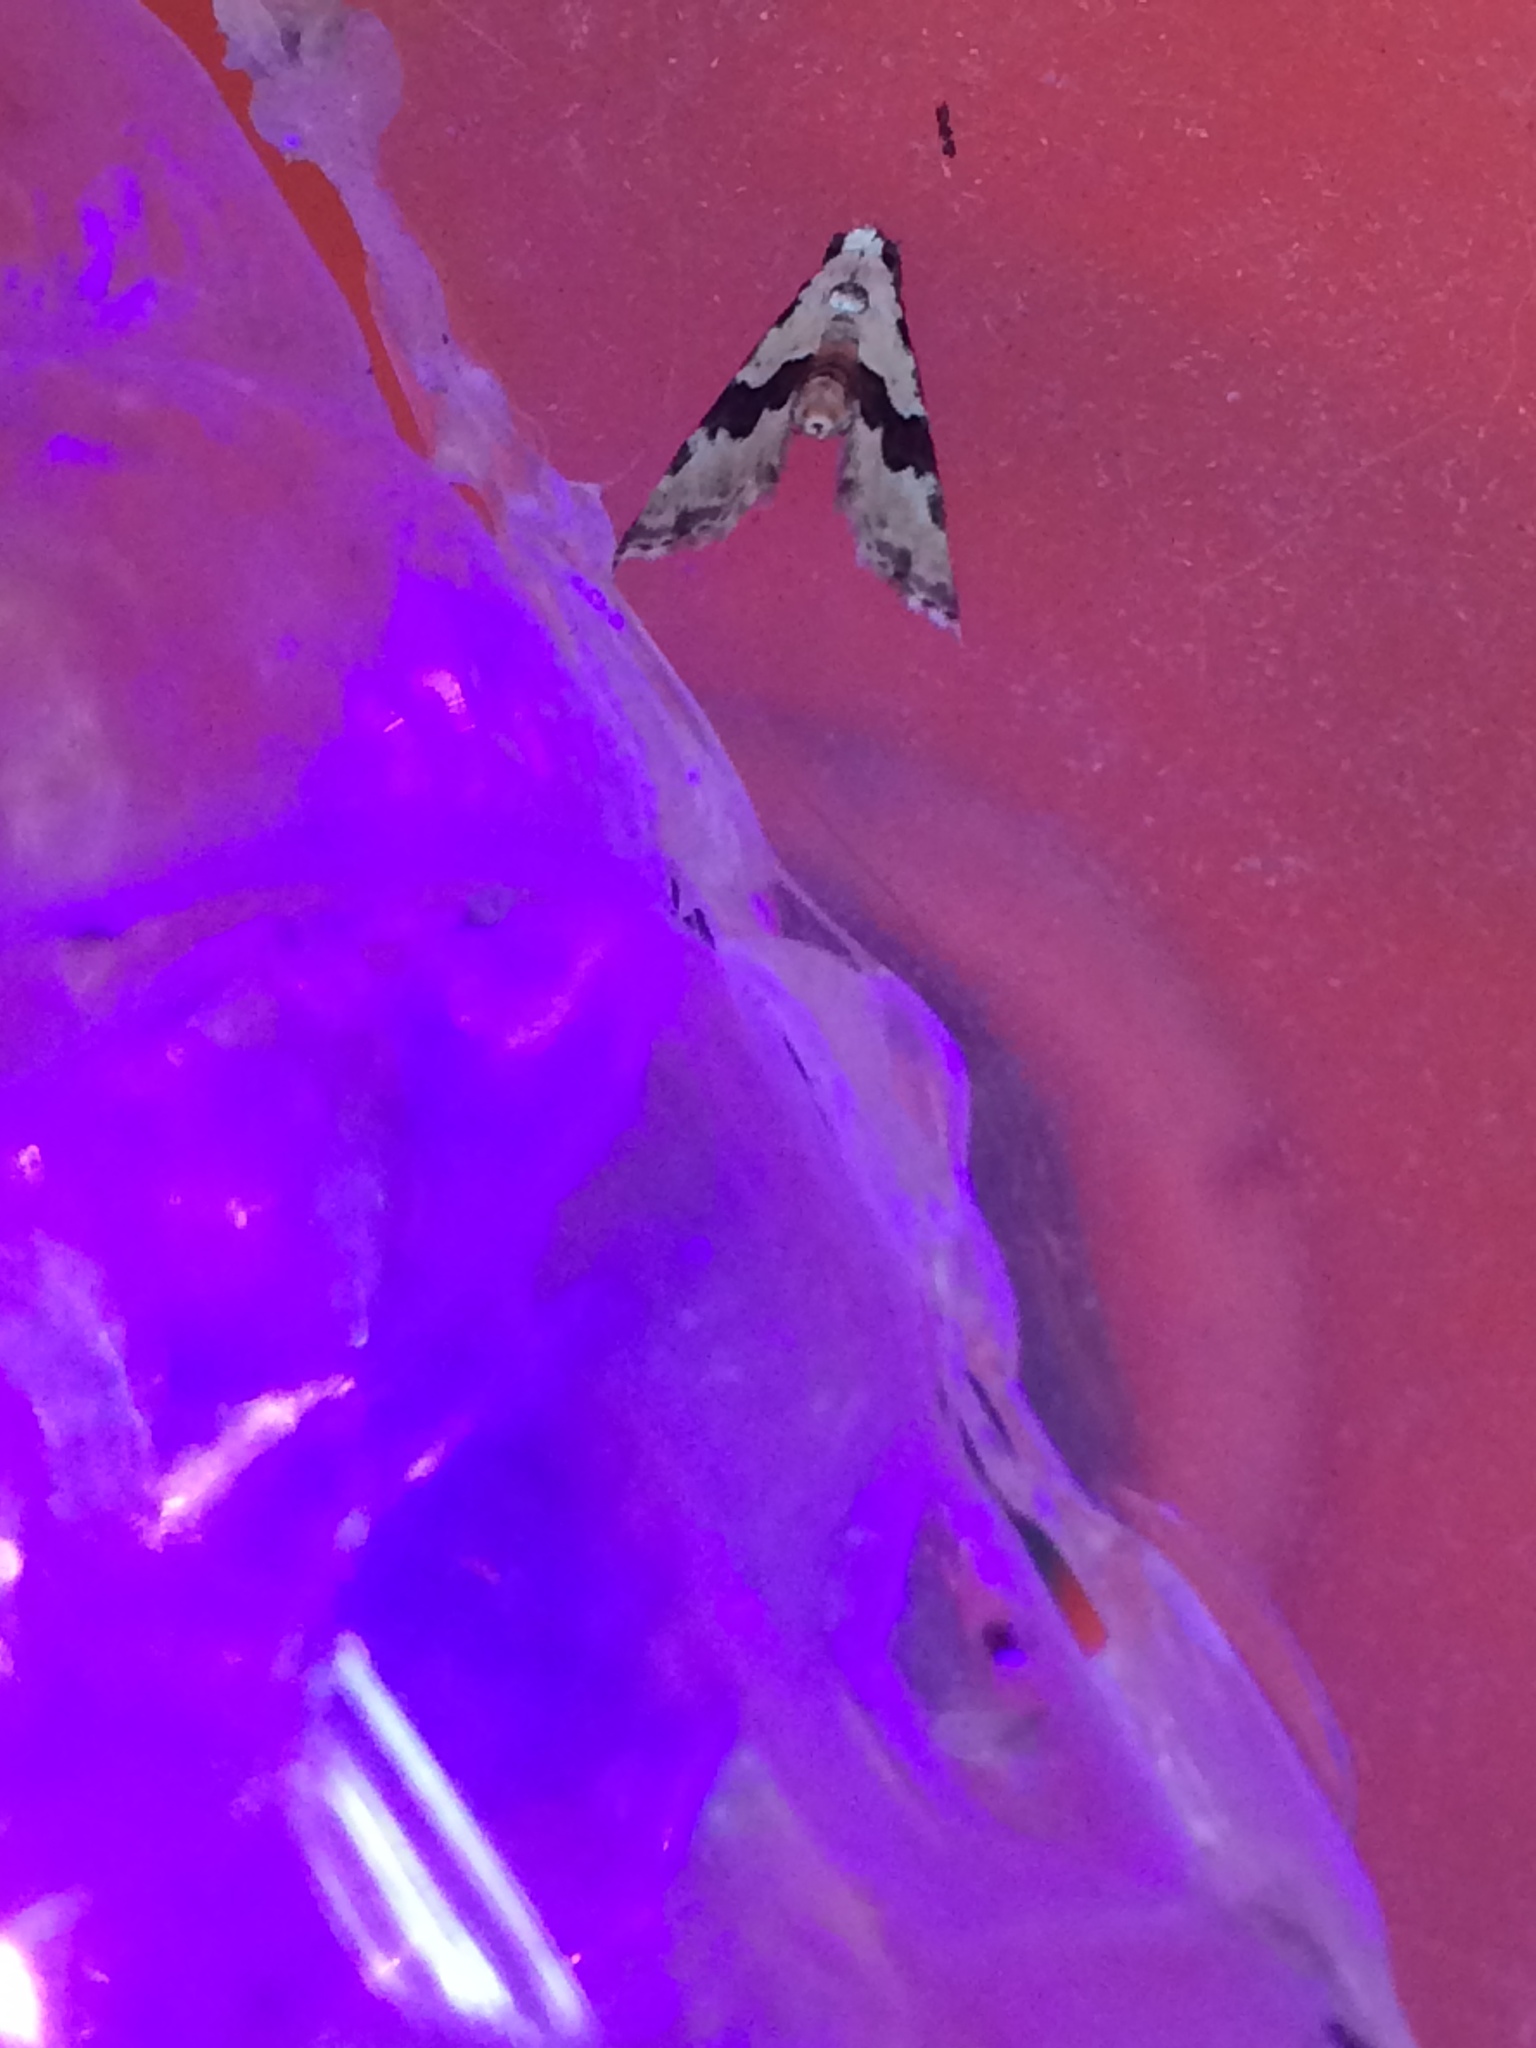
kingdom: Animalia
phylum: Arthropoda
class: Insecta
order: Lepidoptera
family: Noctuidae
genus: Nigetia
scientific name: Nigetia formosalis
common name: Thin-winged owlet
